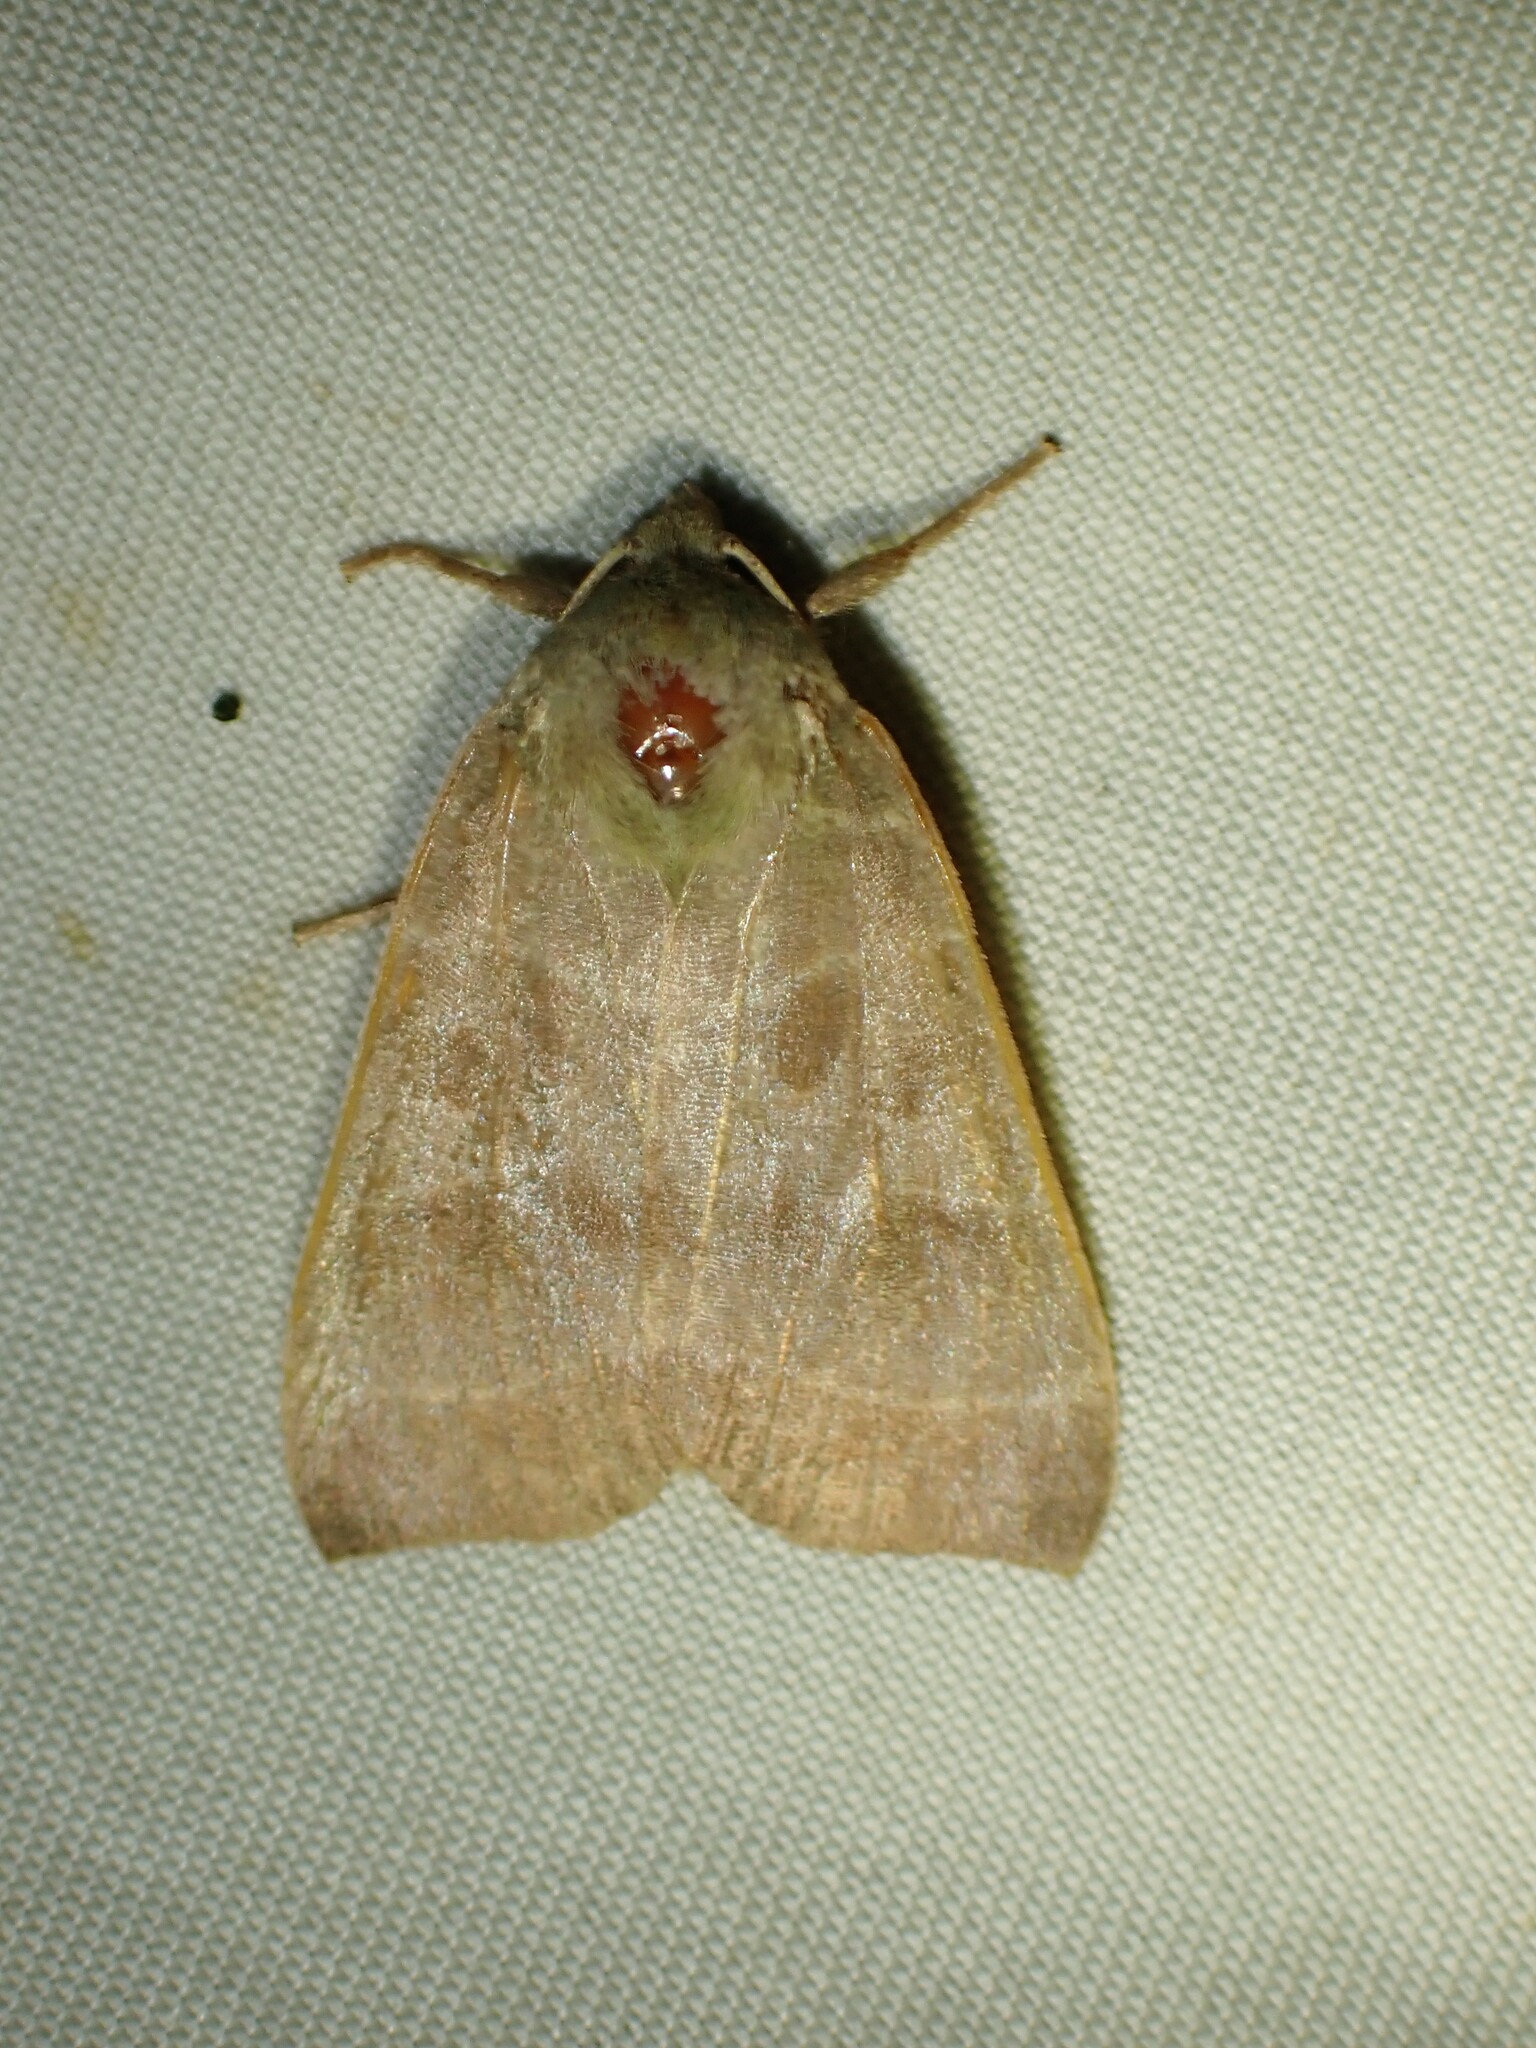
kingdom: Animalia
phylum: Arthropoda
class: Insecta
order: Lepidoptera
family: Noctuidae
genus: Ipimorpha
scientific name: Ipimorpha pleonectusa
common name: Even-lined sallow
